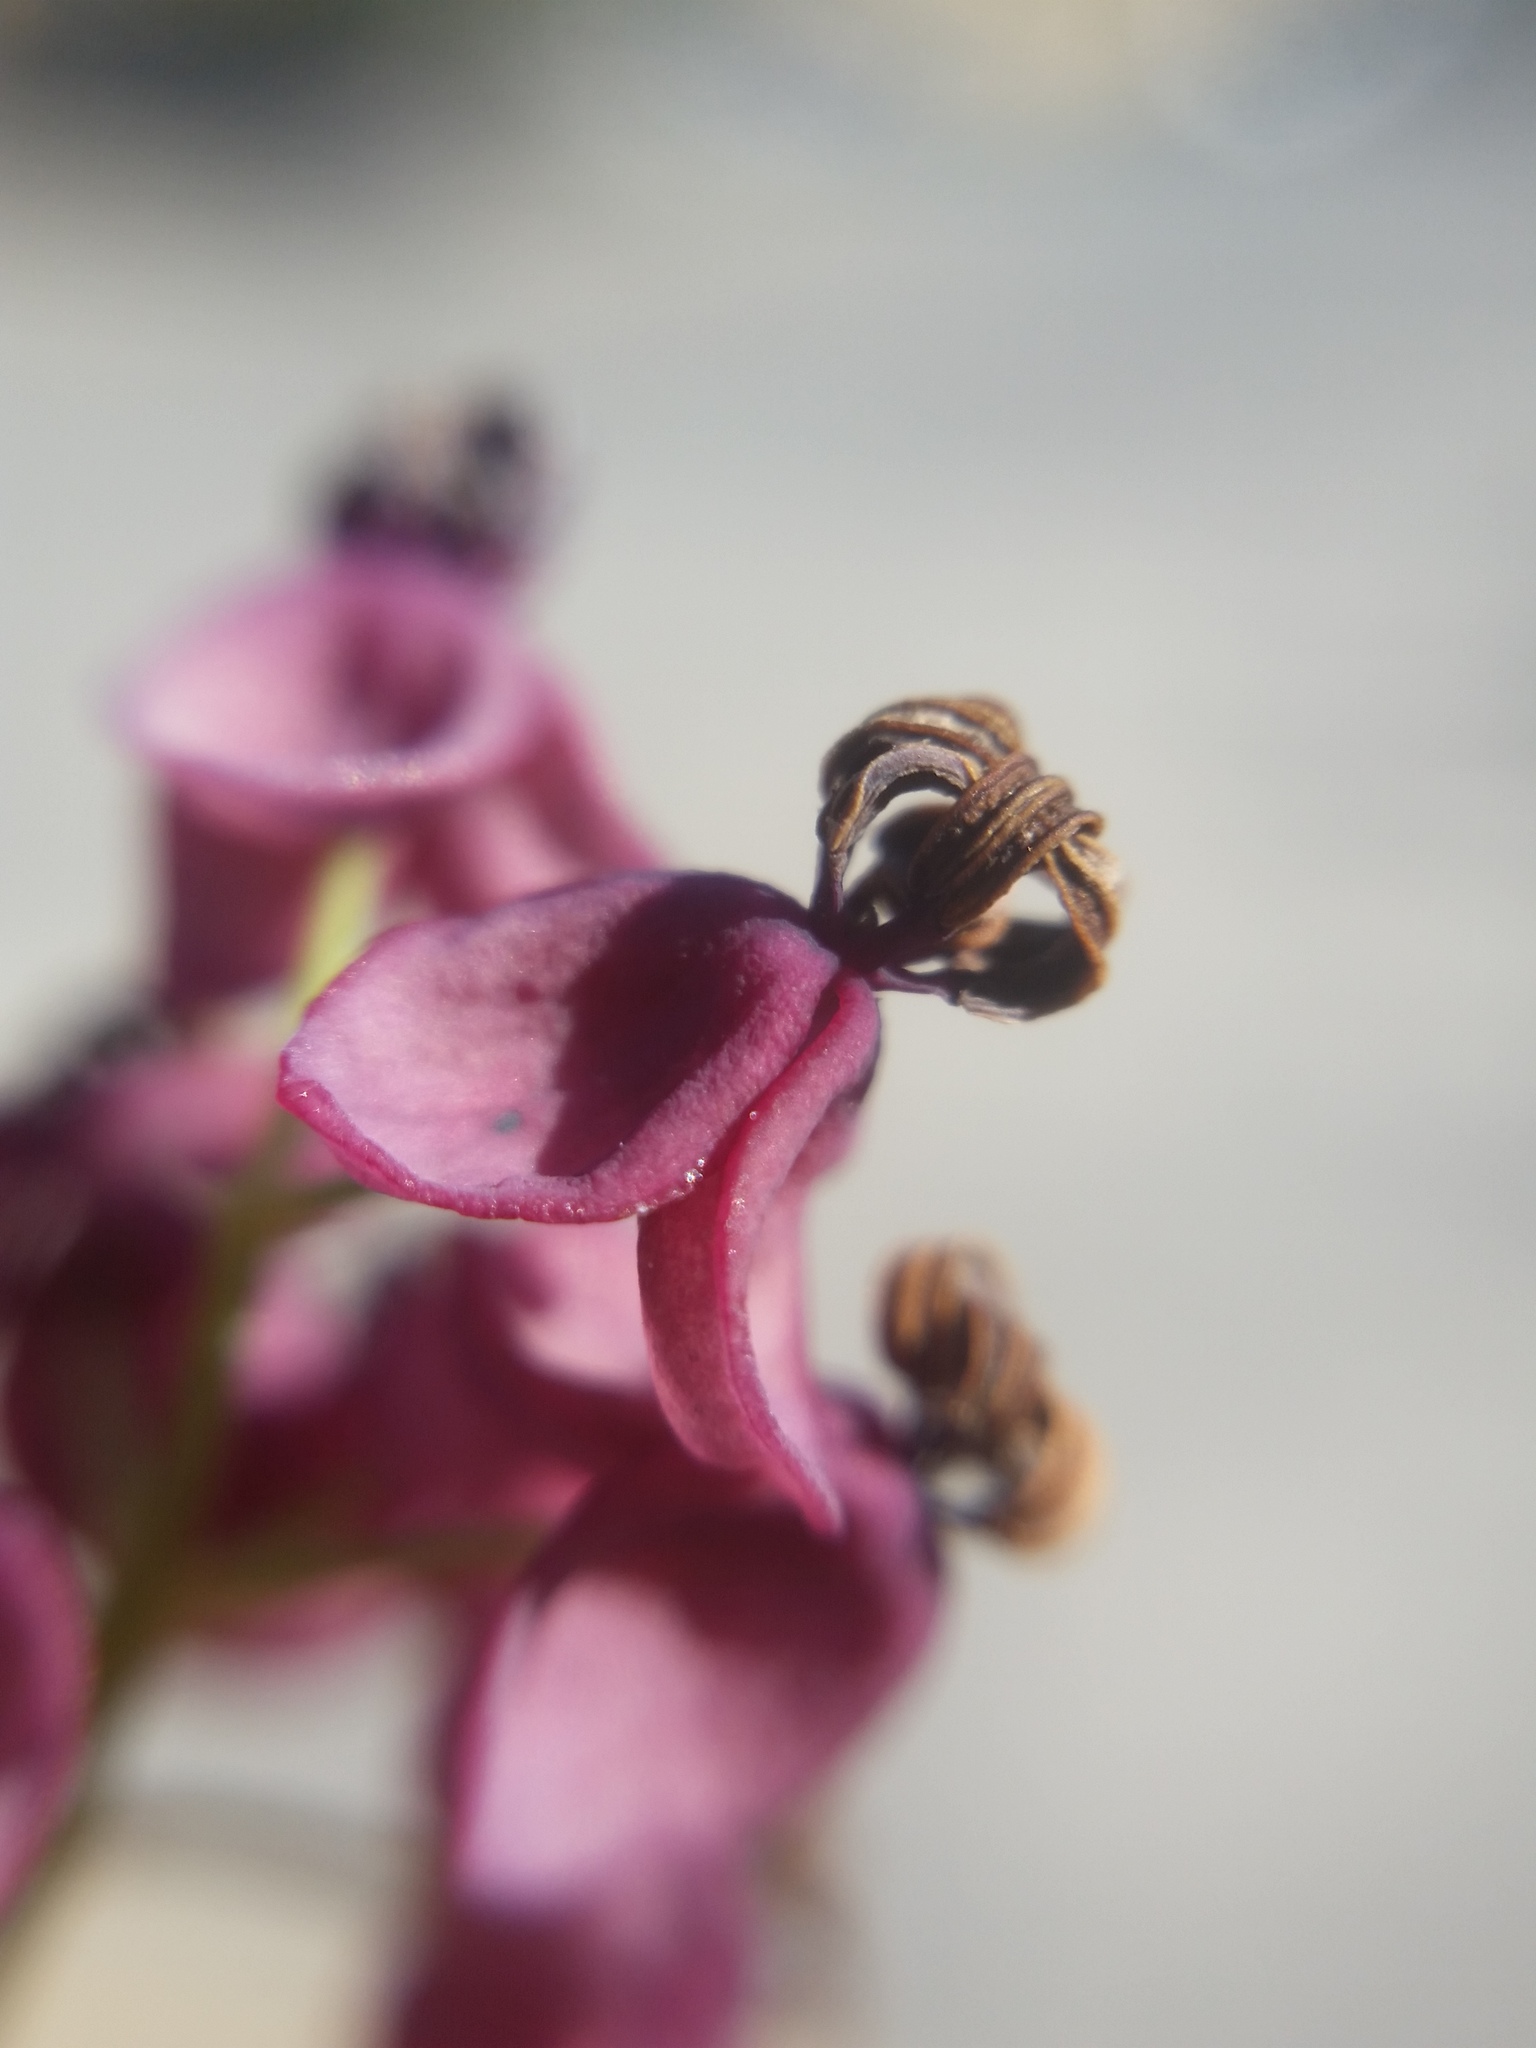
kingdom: Plantae
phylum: Tracheophyta
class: Magnoliopsida
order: Ranunculales
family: Lardizabalaceae
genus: Akebia
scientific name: Akebia quinata
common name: Five-leaf akebia
